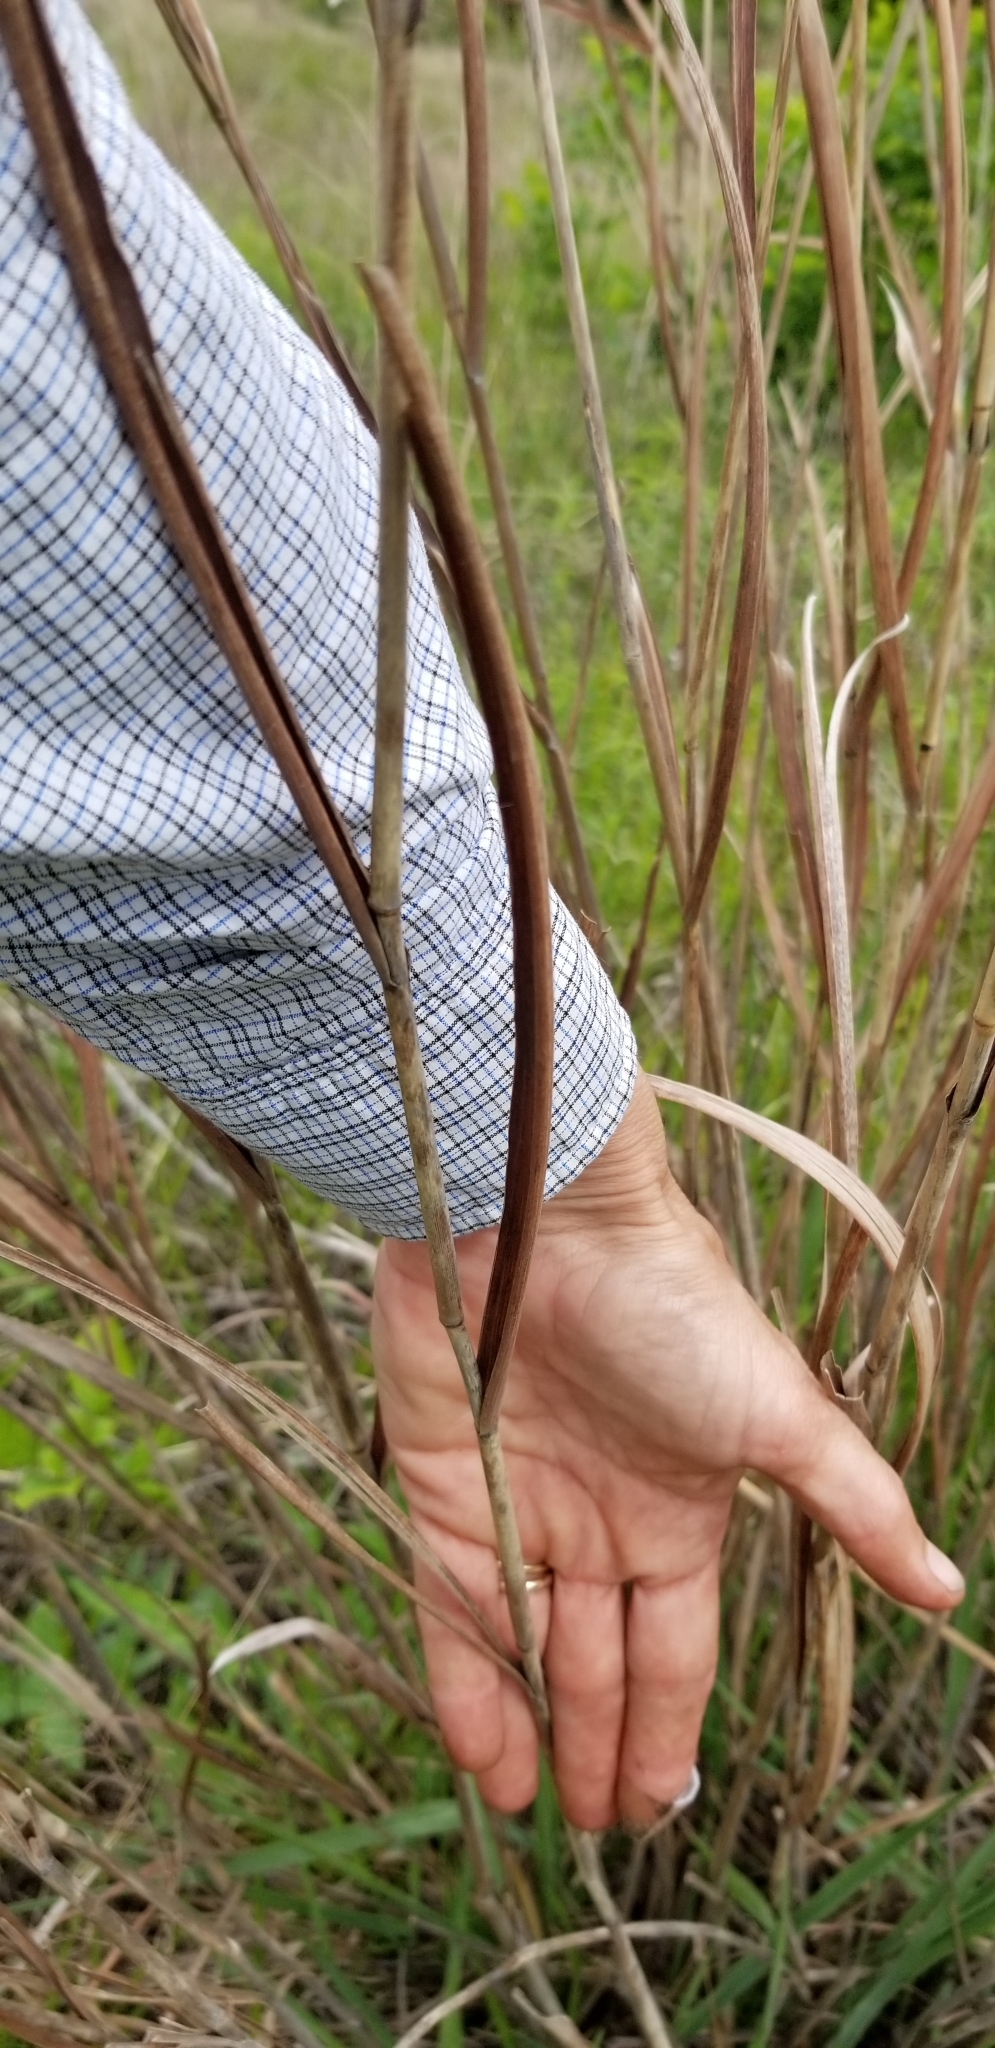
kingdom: Plantae
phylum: Tracheophyta
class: Liliopsida
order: Poales
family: Poaceae
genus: Panicum
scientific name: Panicum virgatum
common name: Switchgrass
